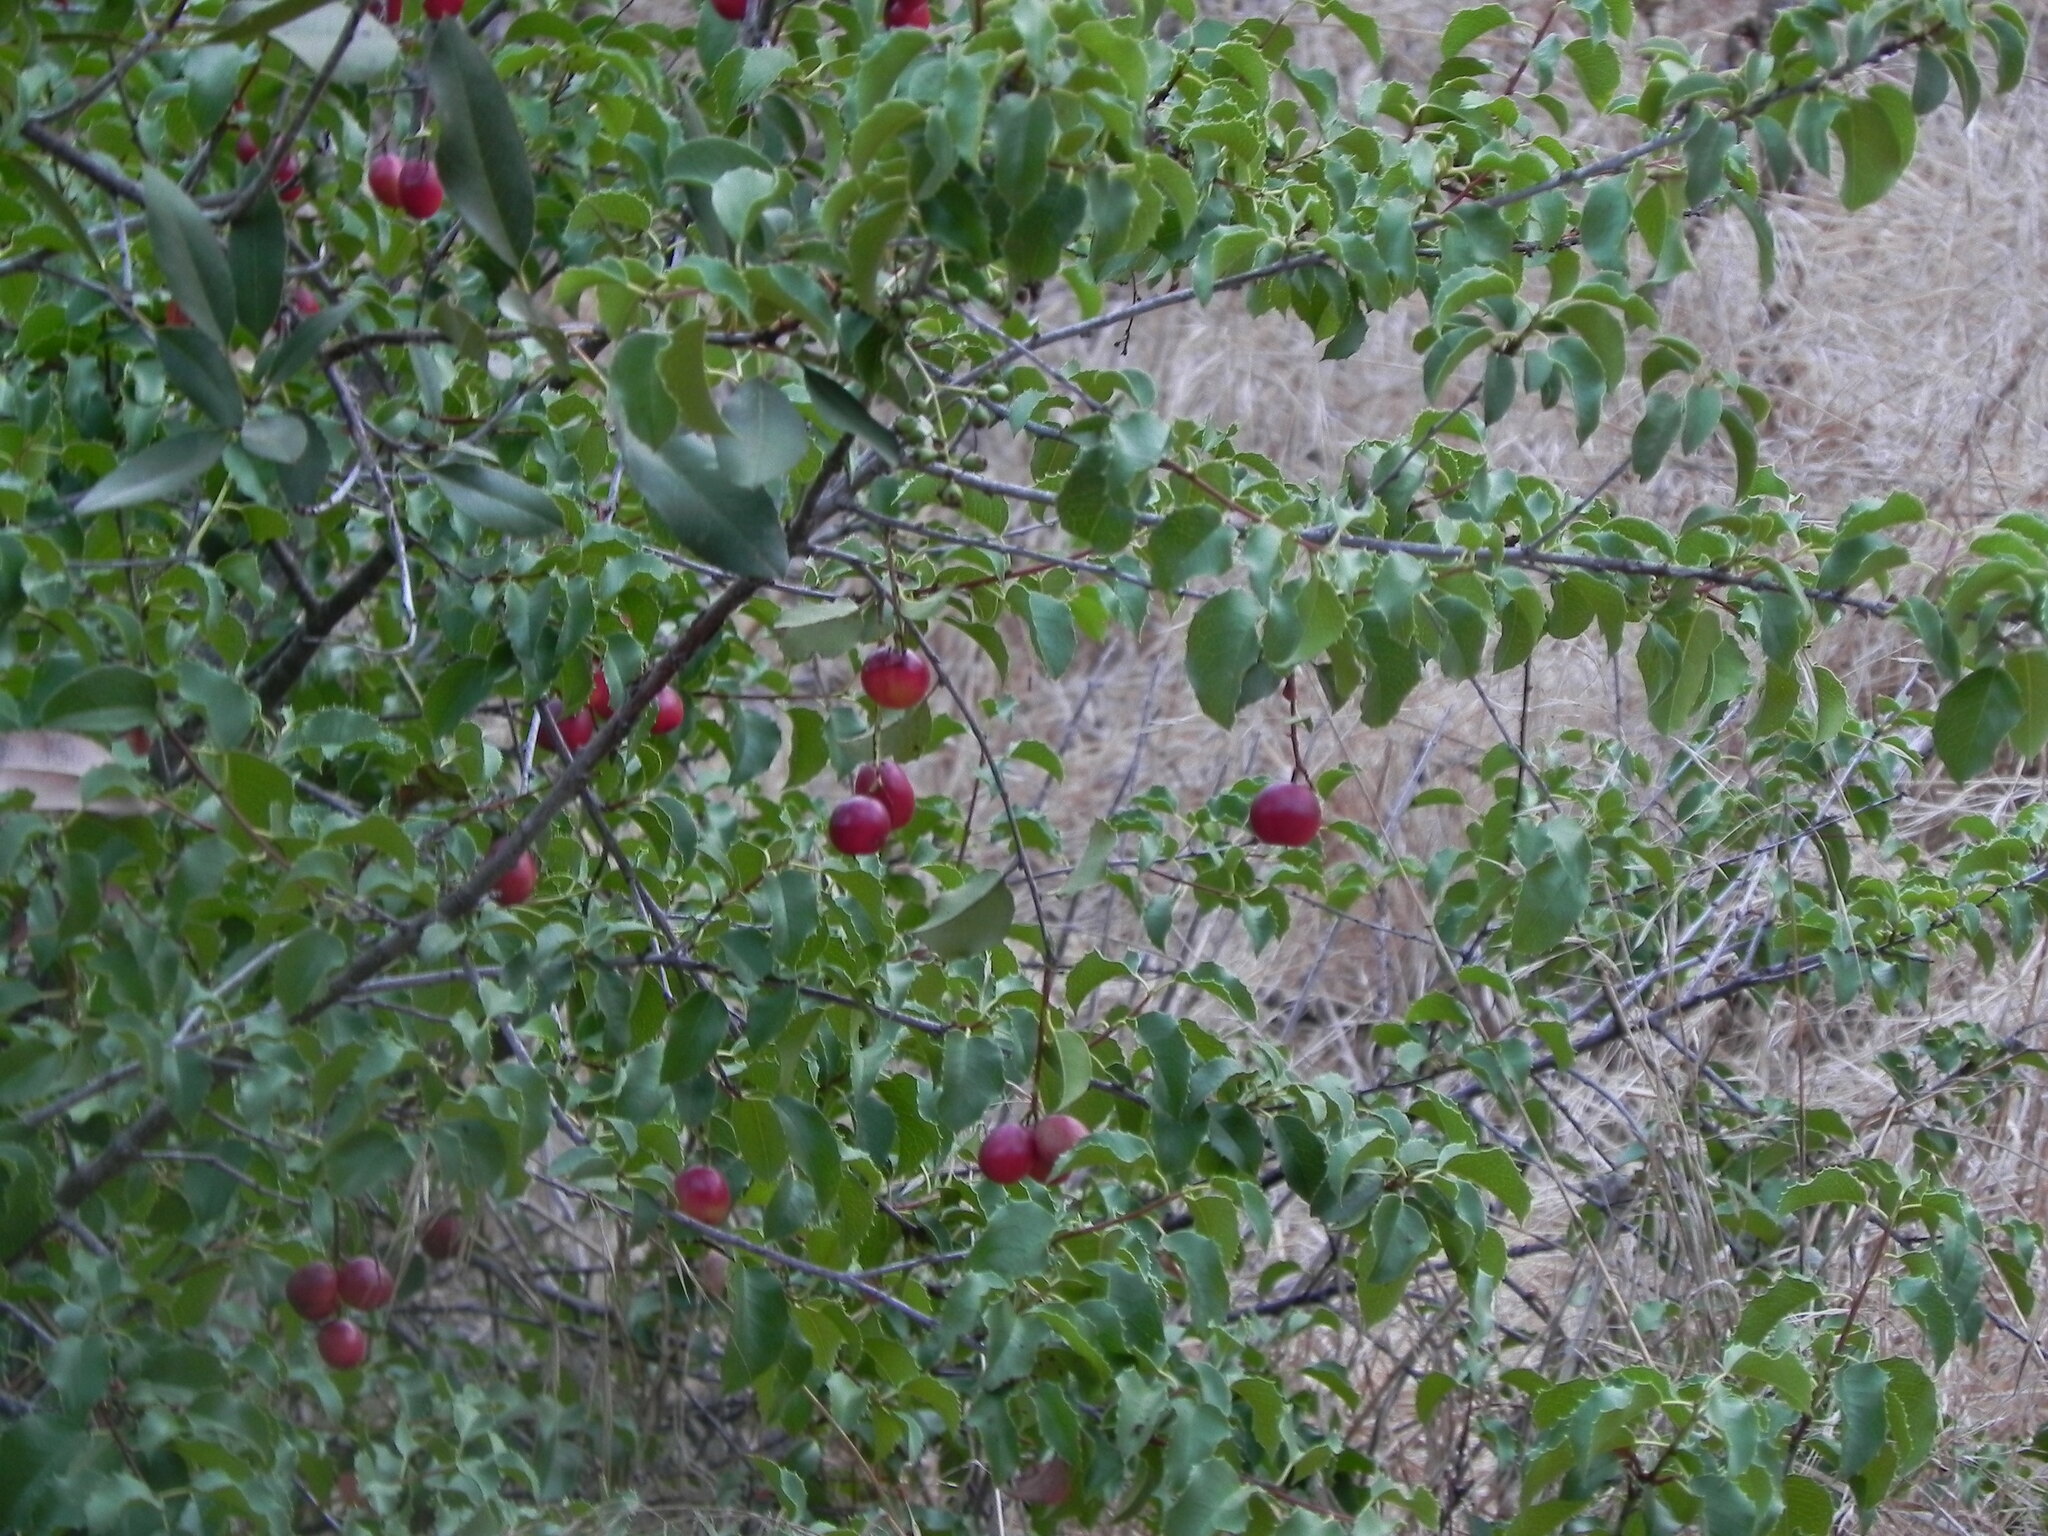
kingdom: Plantae
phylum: Tracheophyta
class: Magnoliopsida
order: Rosales
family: Rosaceae
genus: Prunus
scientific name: Prunus ilicifolia
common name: Hollyleaf cherry
